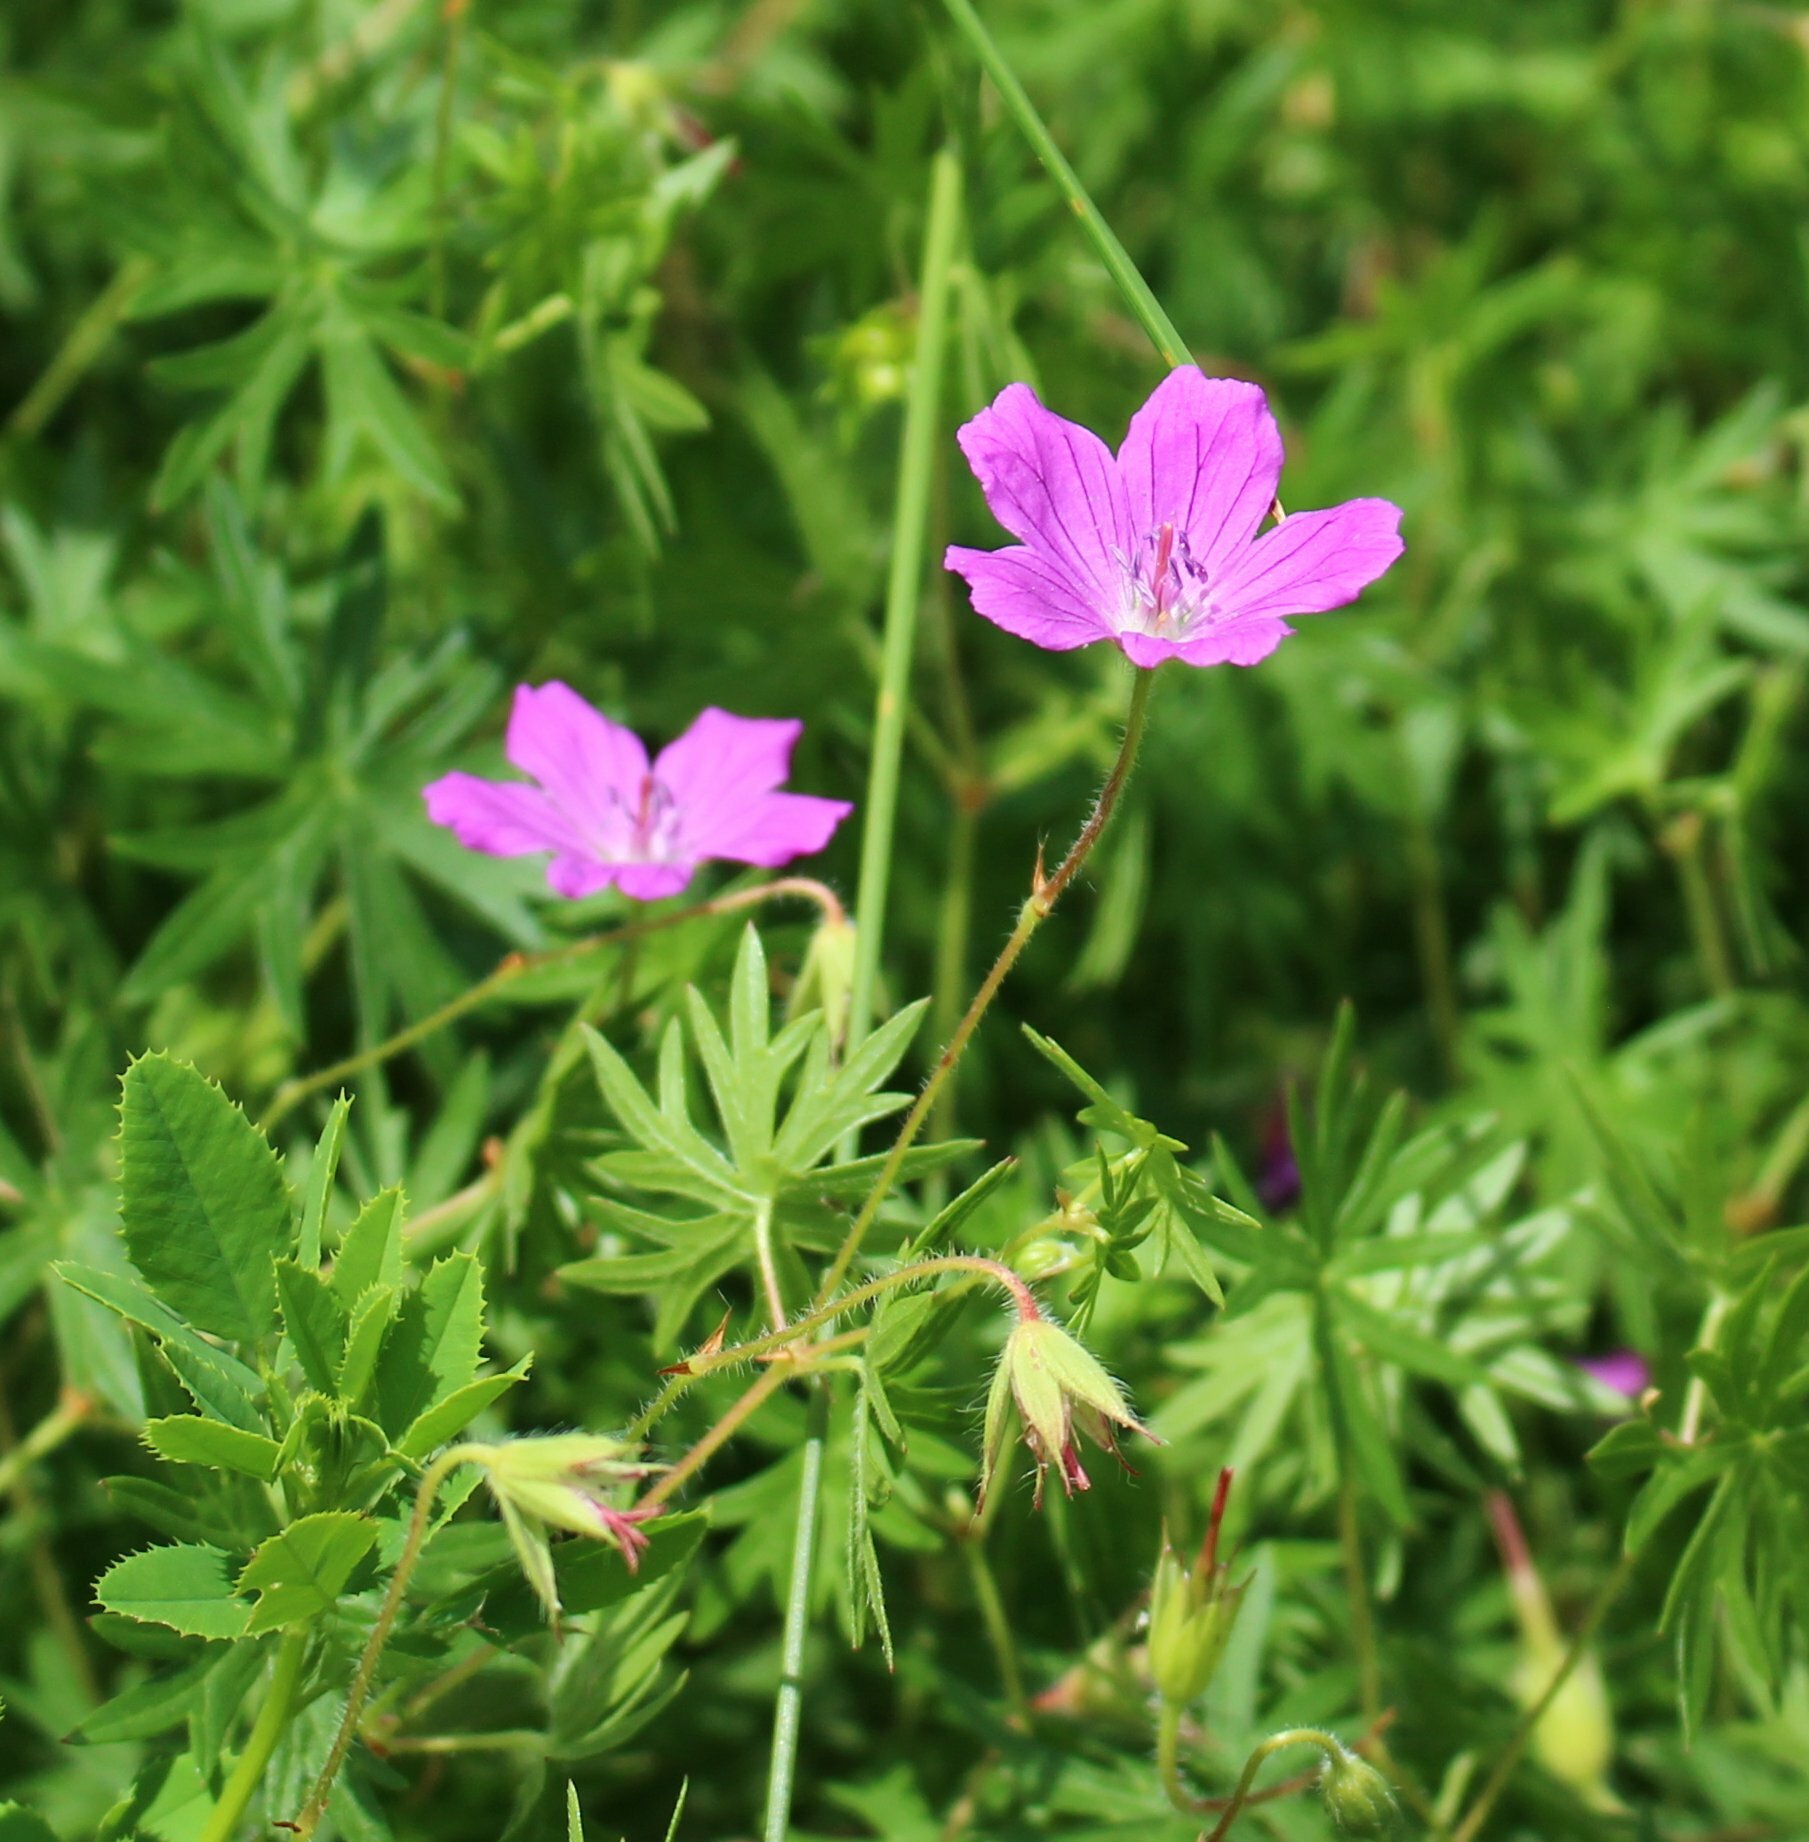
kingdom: Plantae
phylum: Tracheophyta
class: Magnoliopsida
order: Geraniales
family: Geraniaceae
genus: Geranium
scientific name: Geranium sanguineum
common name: Bloody crane's-bill
